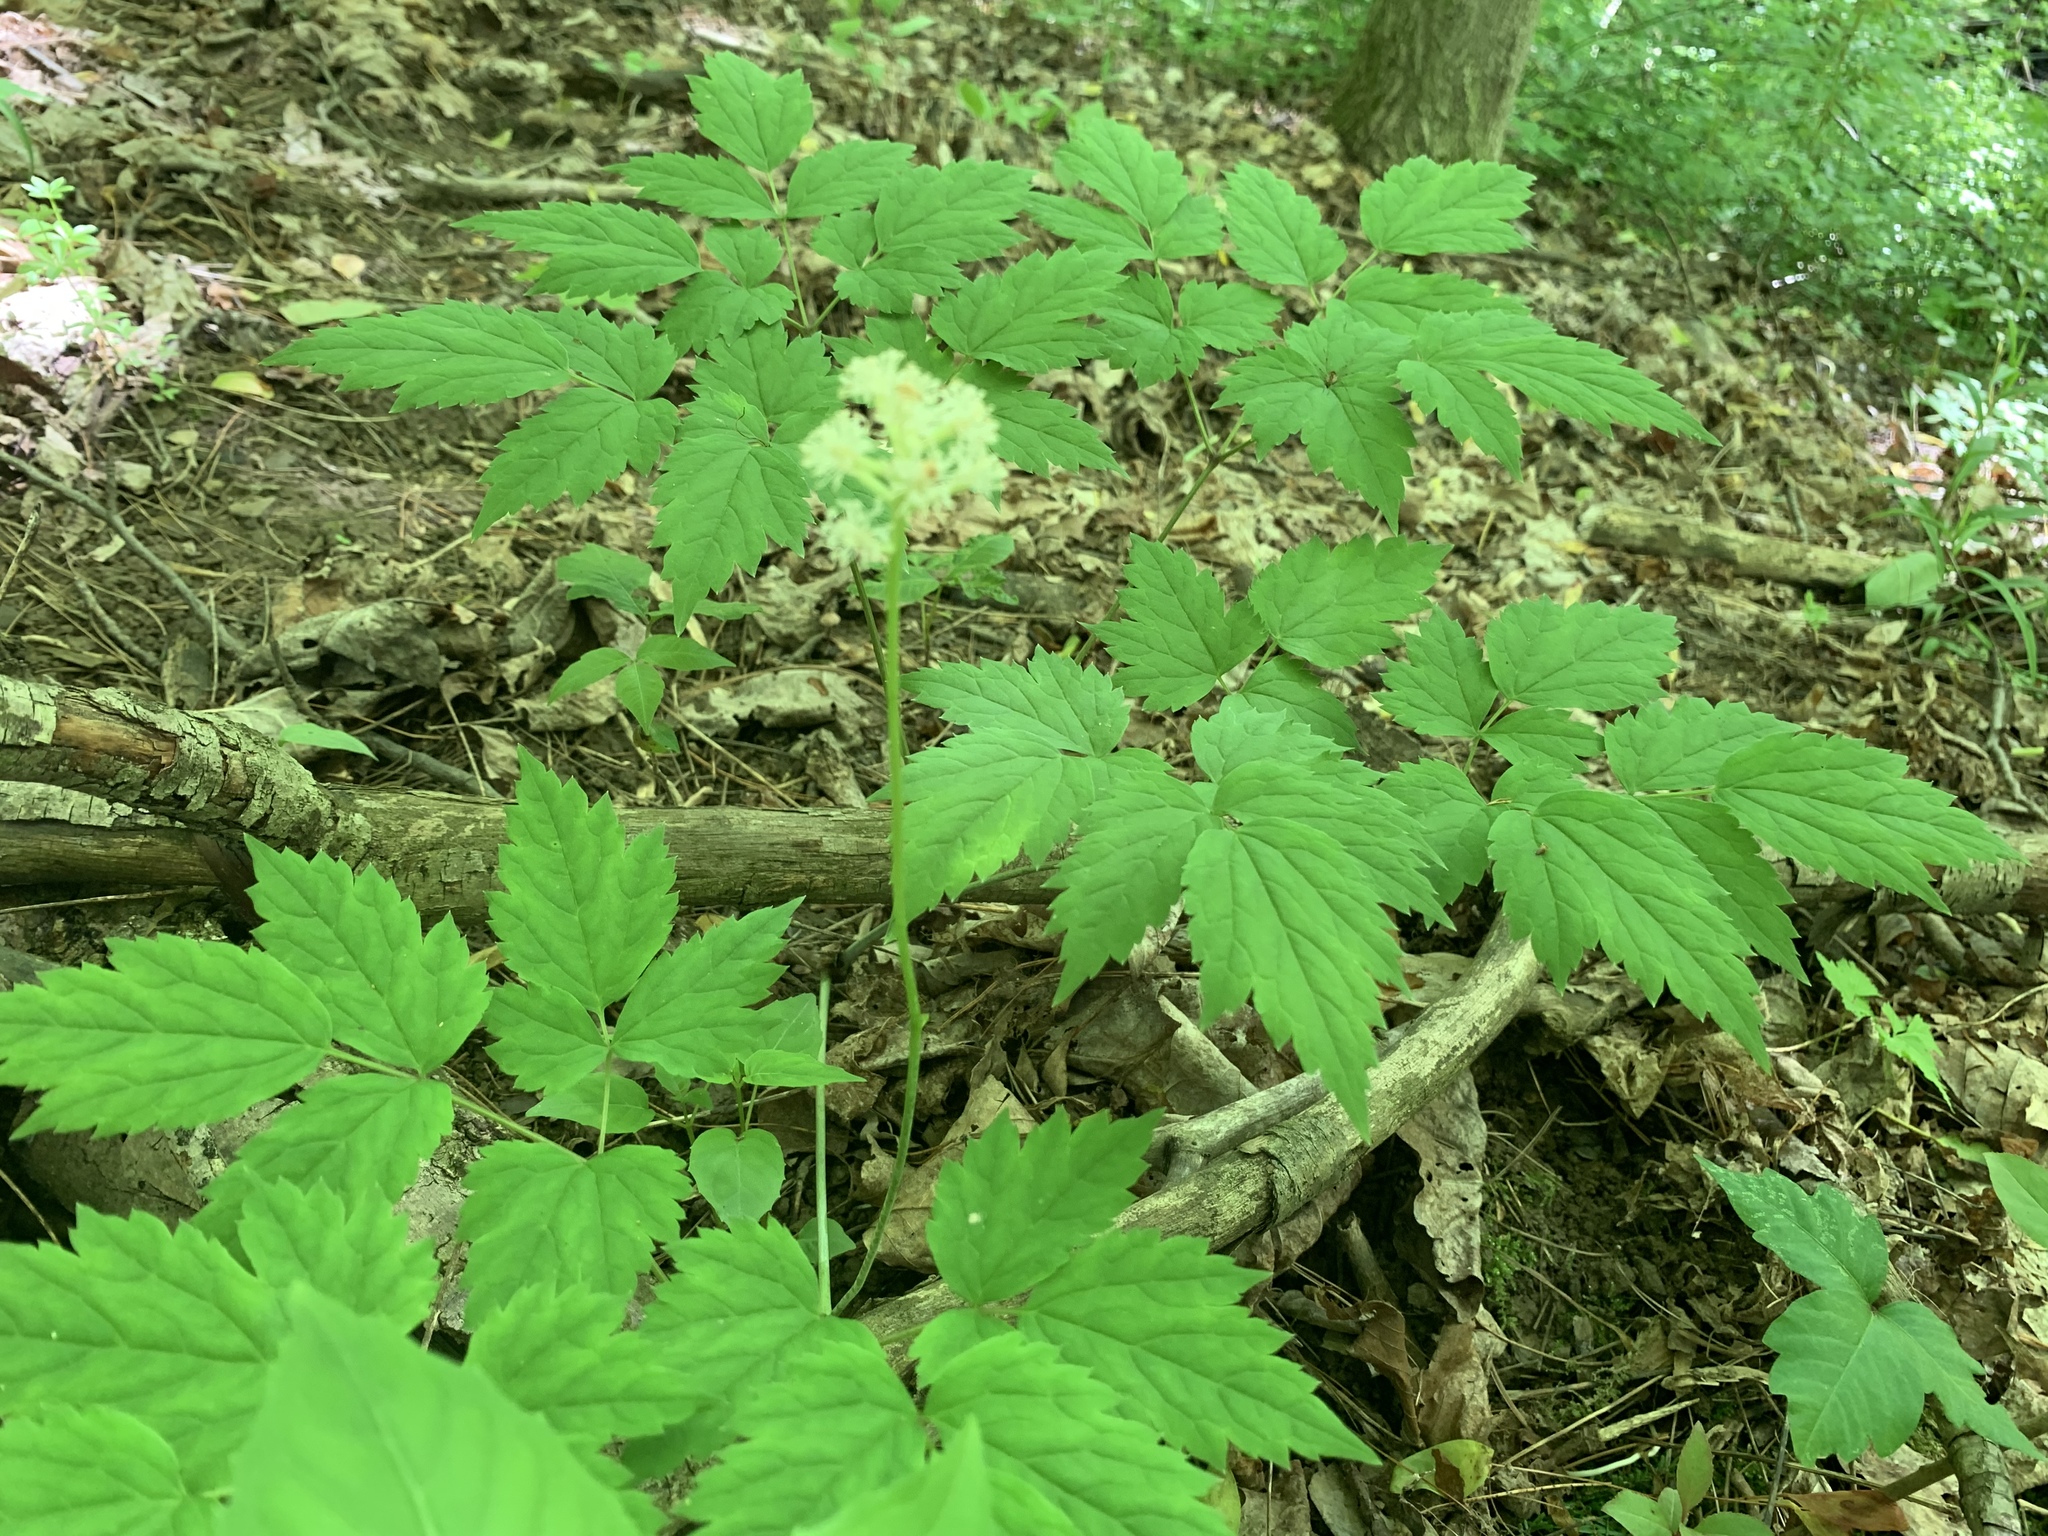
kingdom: Plantae
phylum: Tracheophyta
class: Magnoliopsida
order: Ranunculales
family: Ranunculaceae
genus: Actaea
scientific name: Actaea pachypoda
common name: Doll's-eyes
